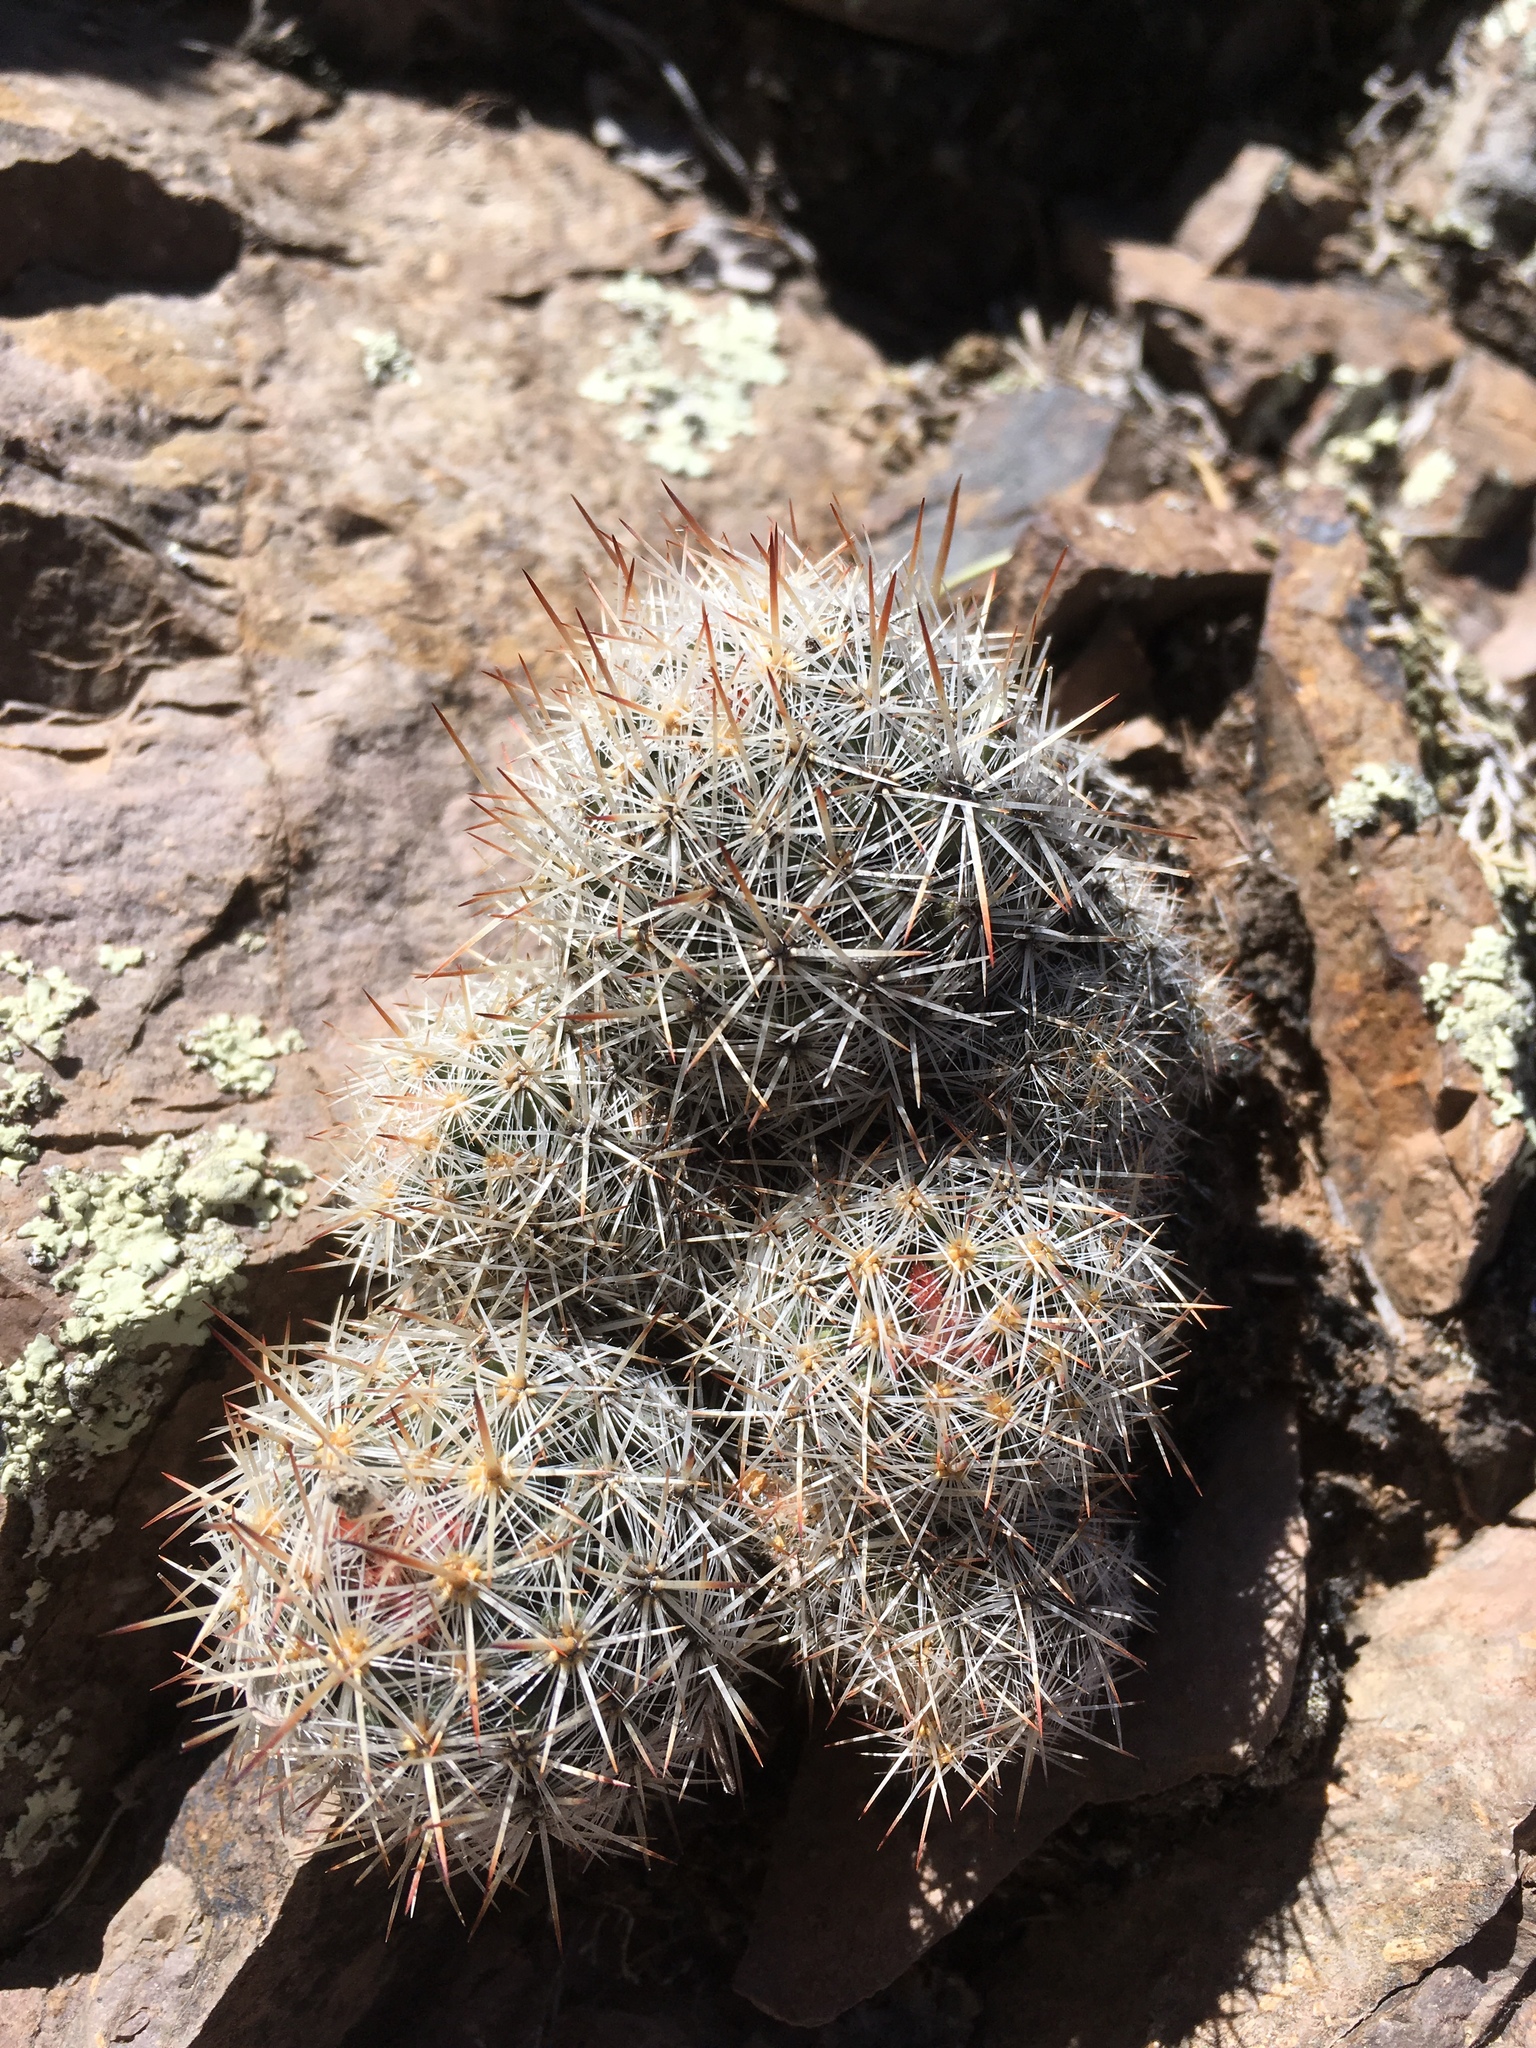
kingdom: Plantae
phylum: Tracheophyta
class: Magnoliopsida
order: Caryophyllales
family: Cactaceae
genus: Pelecyphora
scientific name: Pelecyphora sneedii
